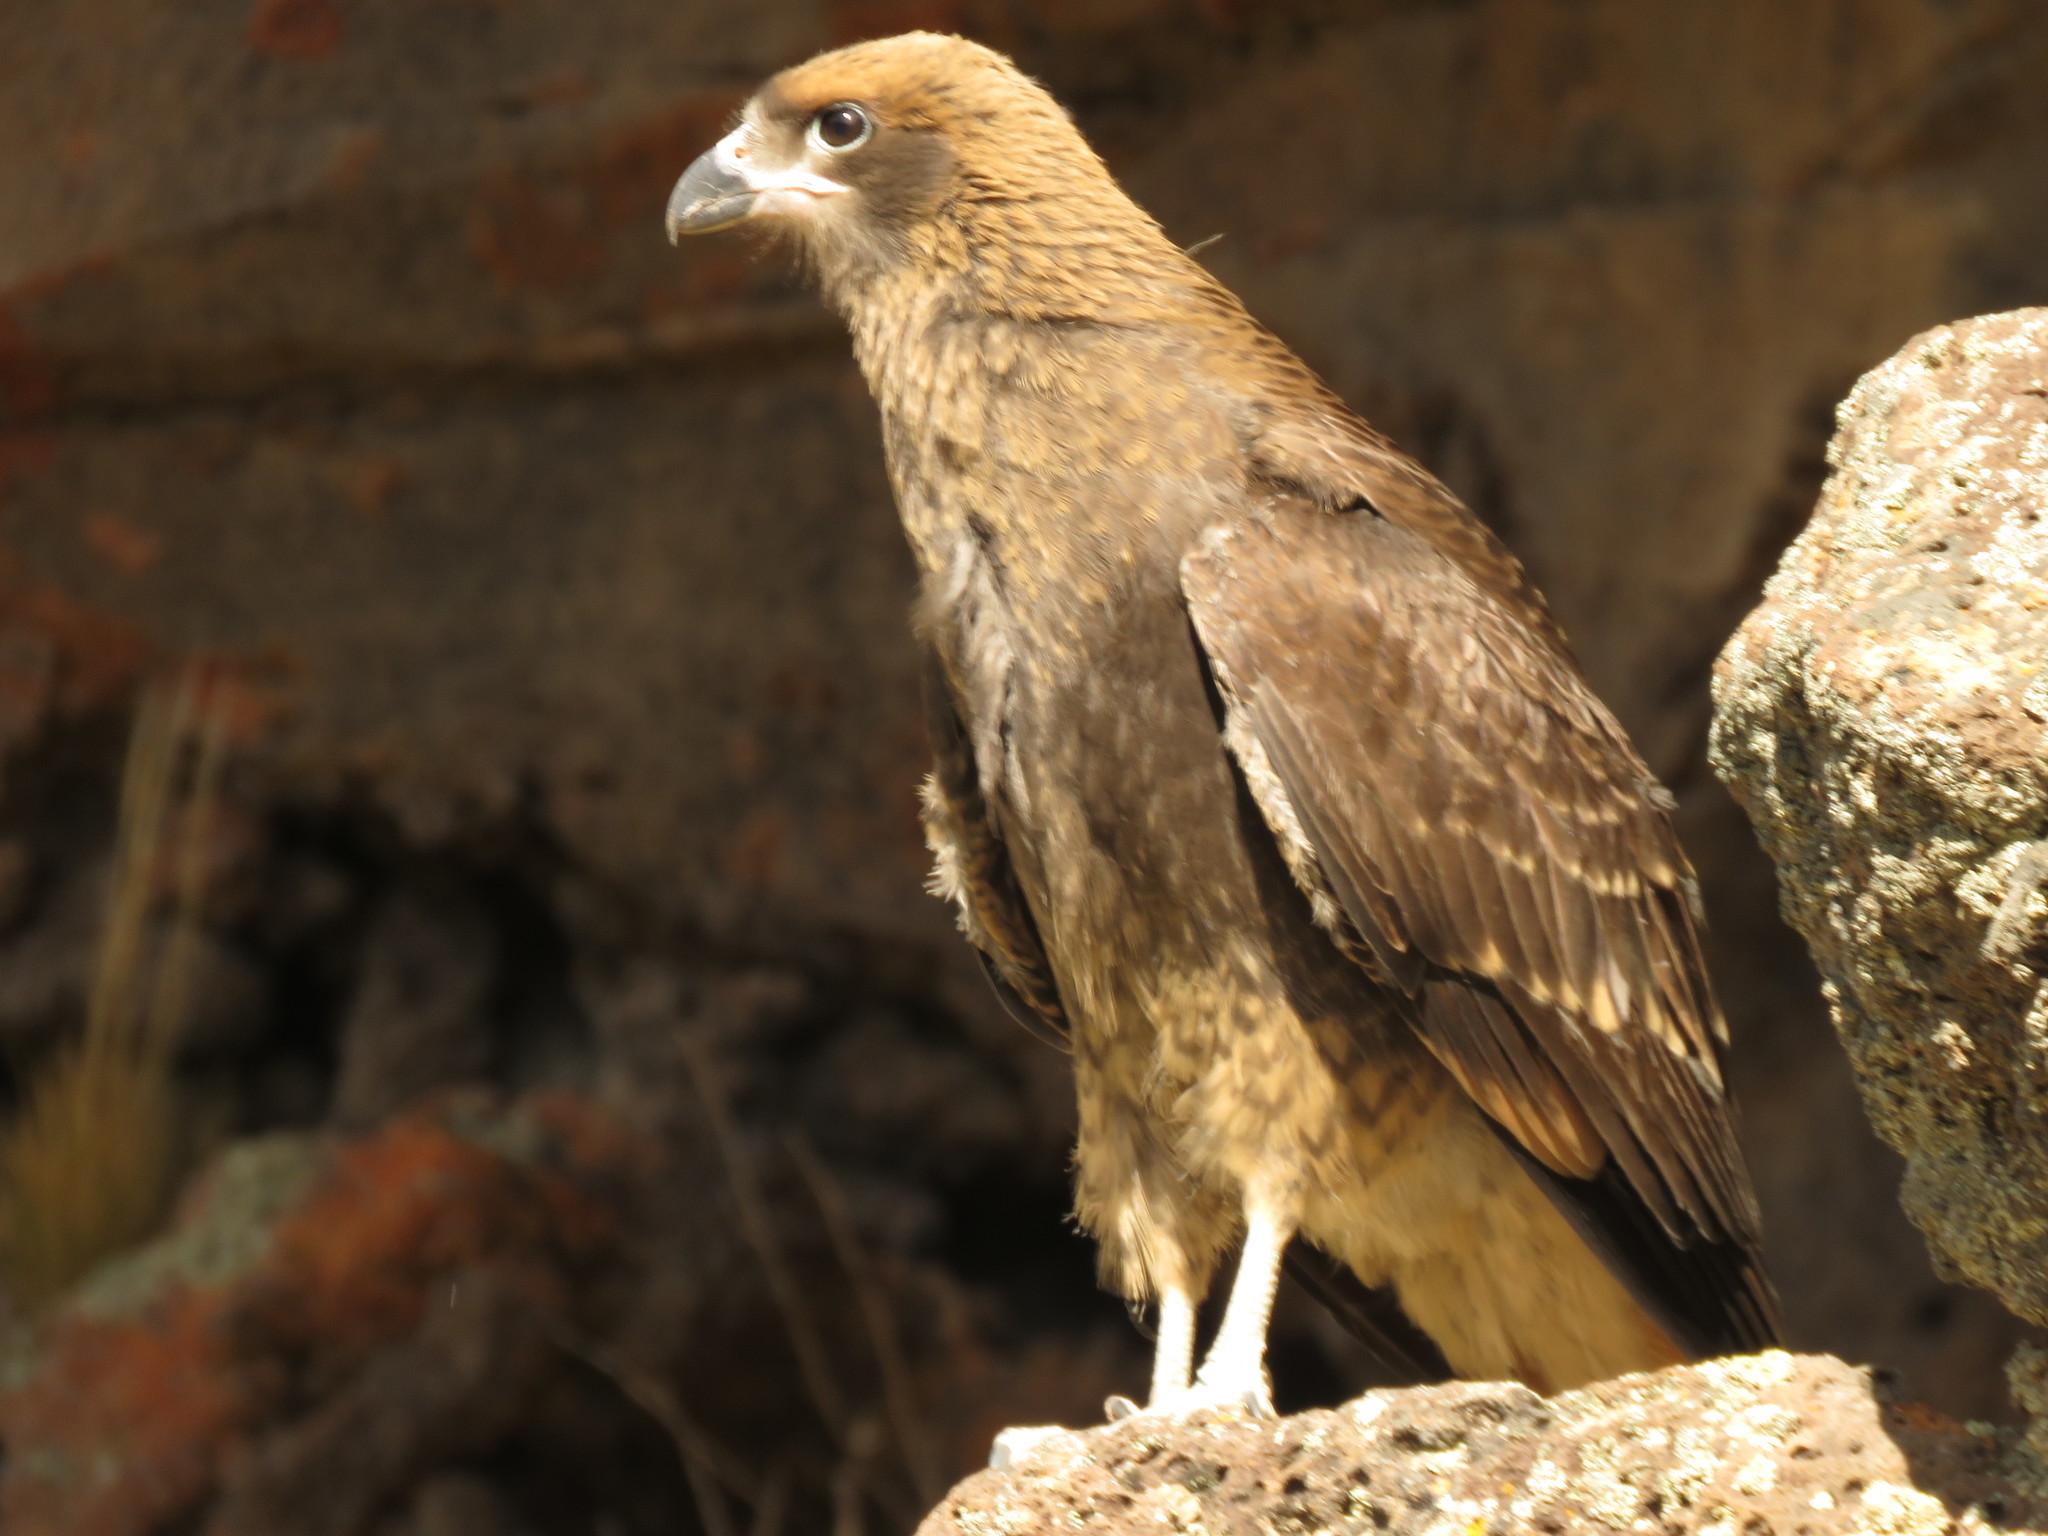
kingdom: Animalia
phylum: Chordata
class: Aves
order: Falconiformes
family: Falconidae
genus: Daptrius
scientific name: Daptrius
